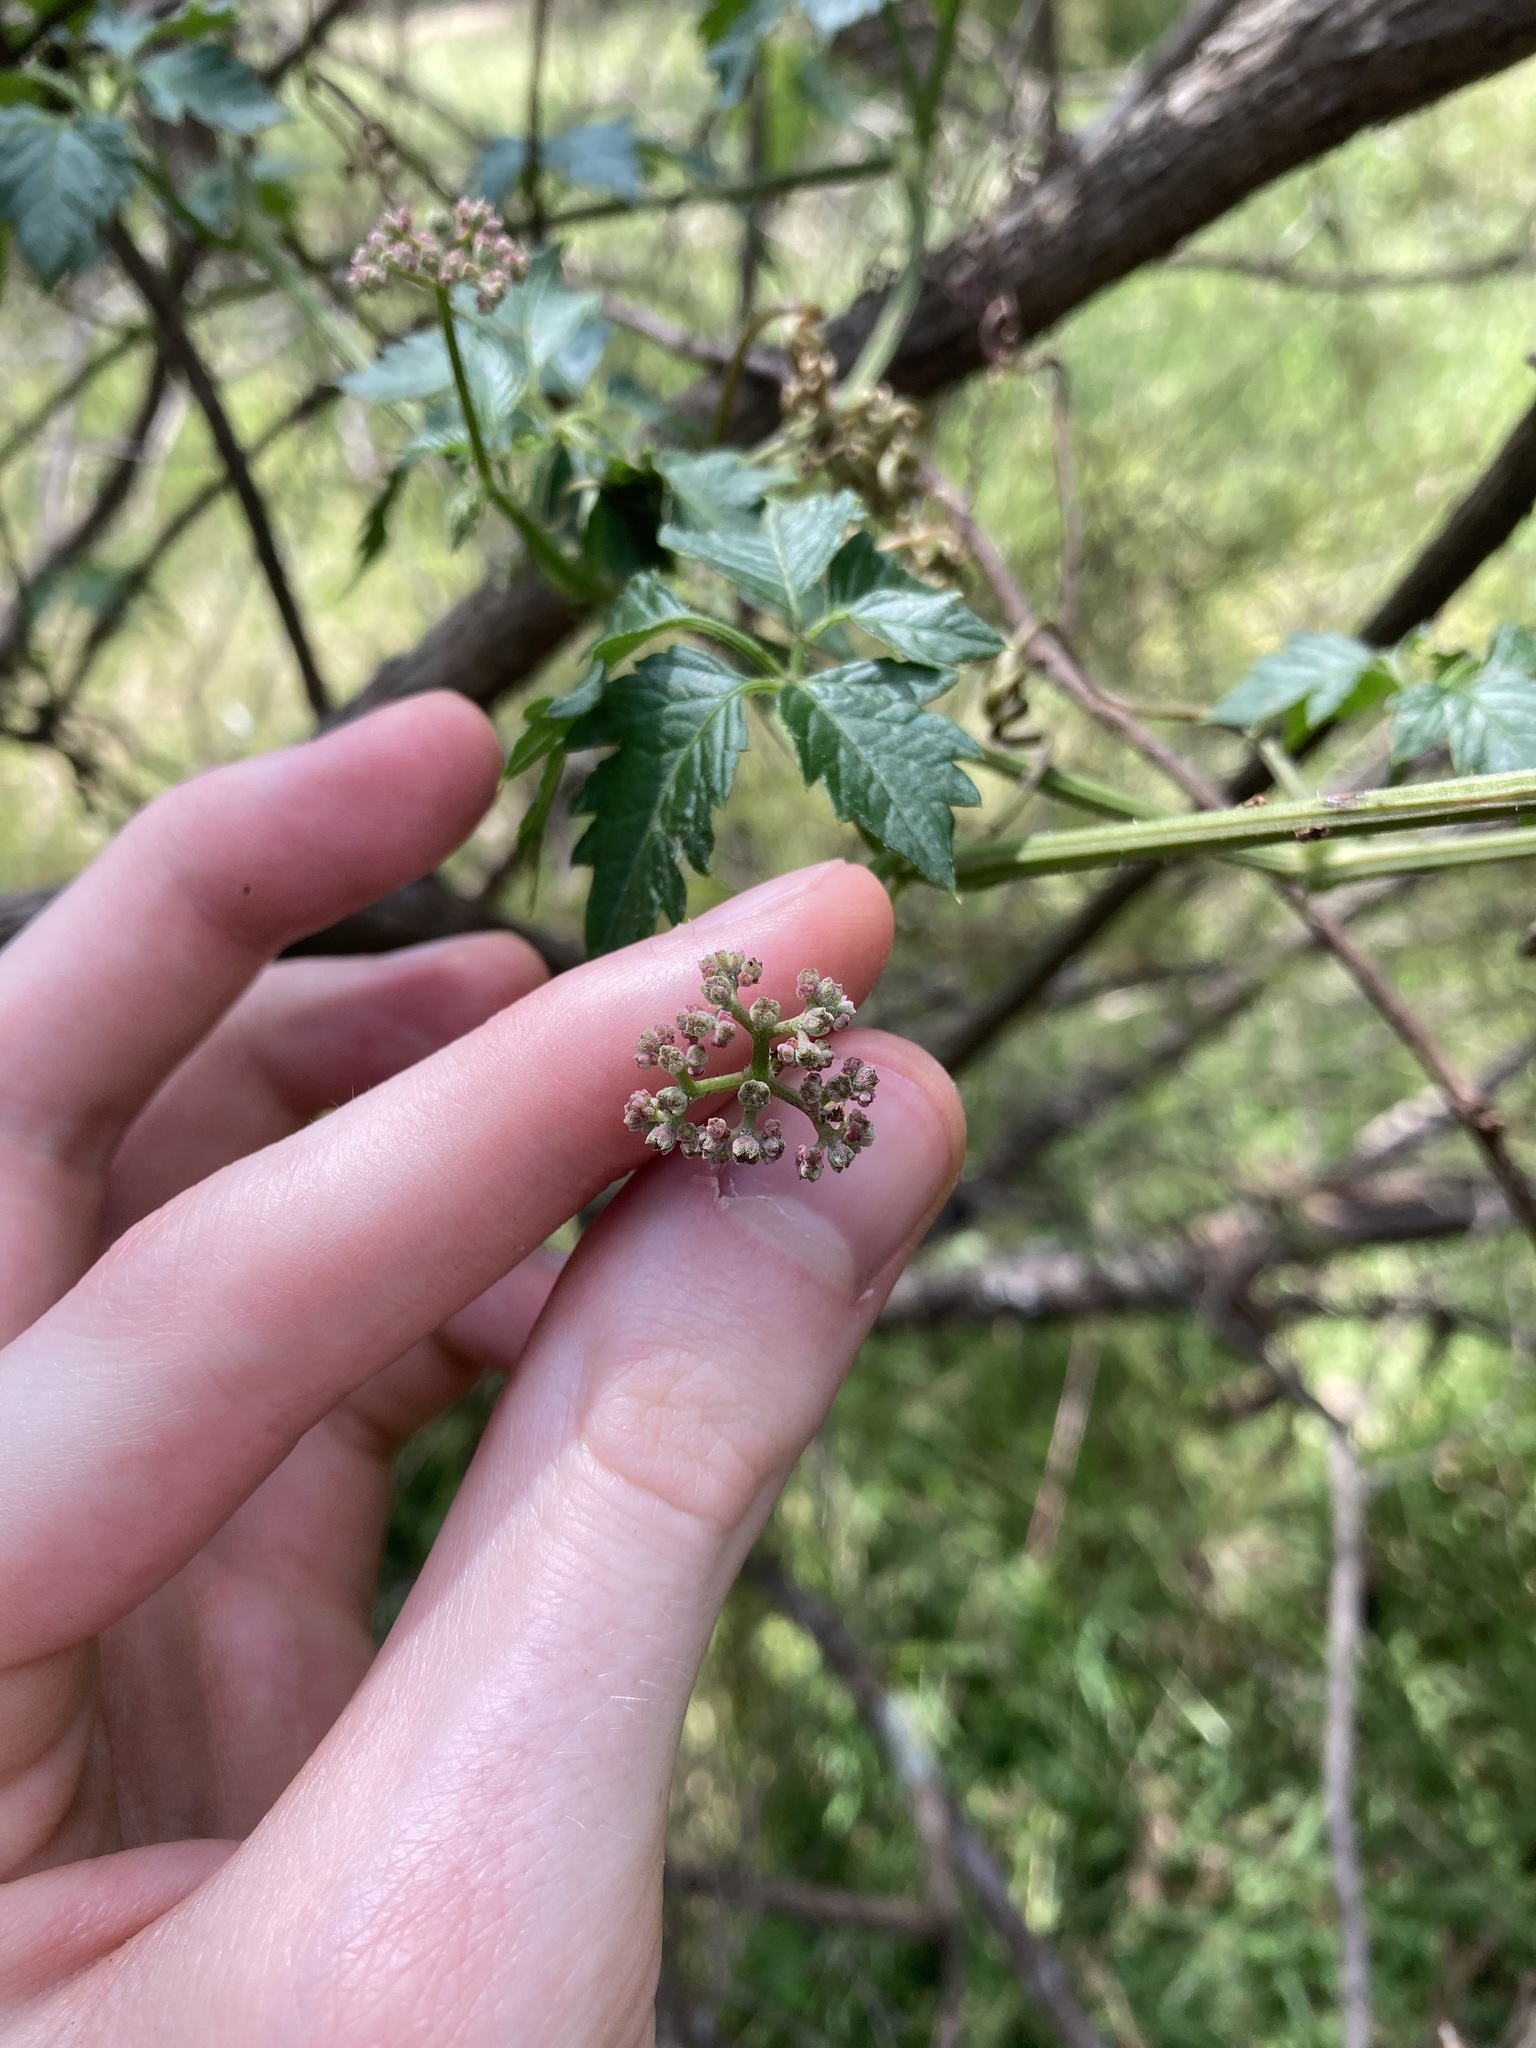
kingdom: Plantae
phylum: Tracheophyta
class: Magnoliopsida
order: Vitales
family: Vitaceae
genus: Causonis
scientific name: Causonis clematidea
